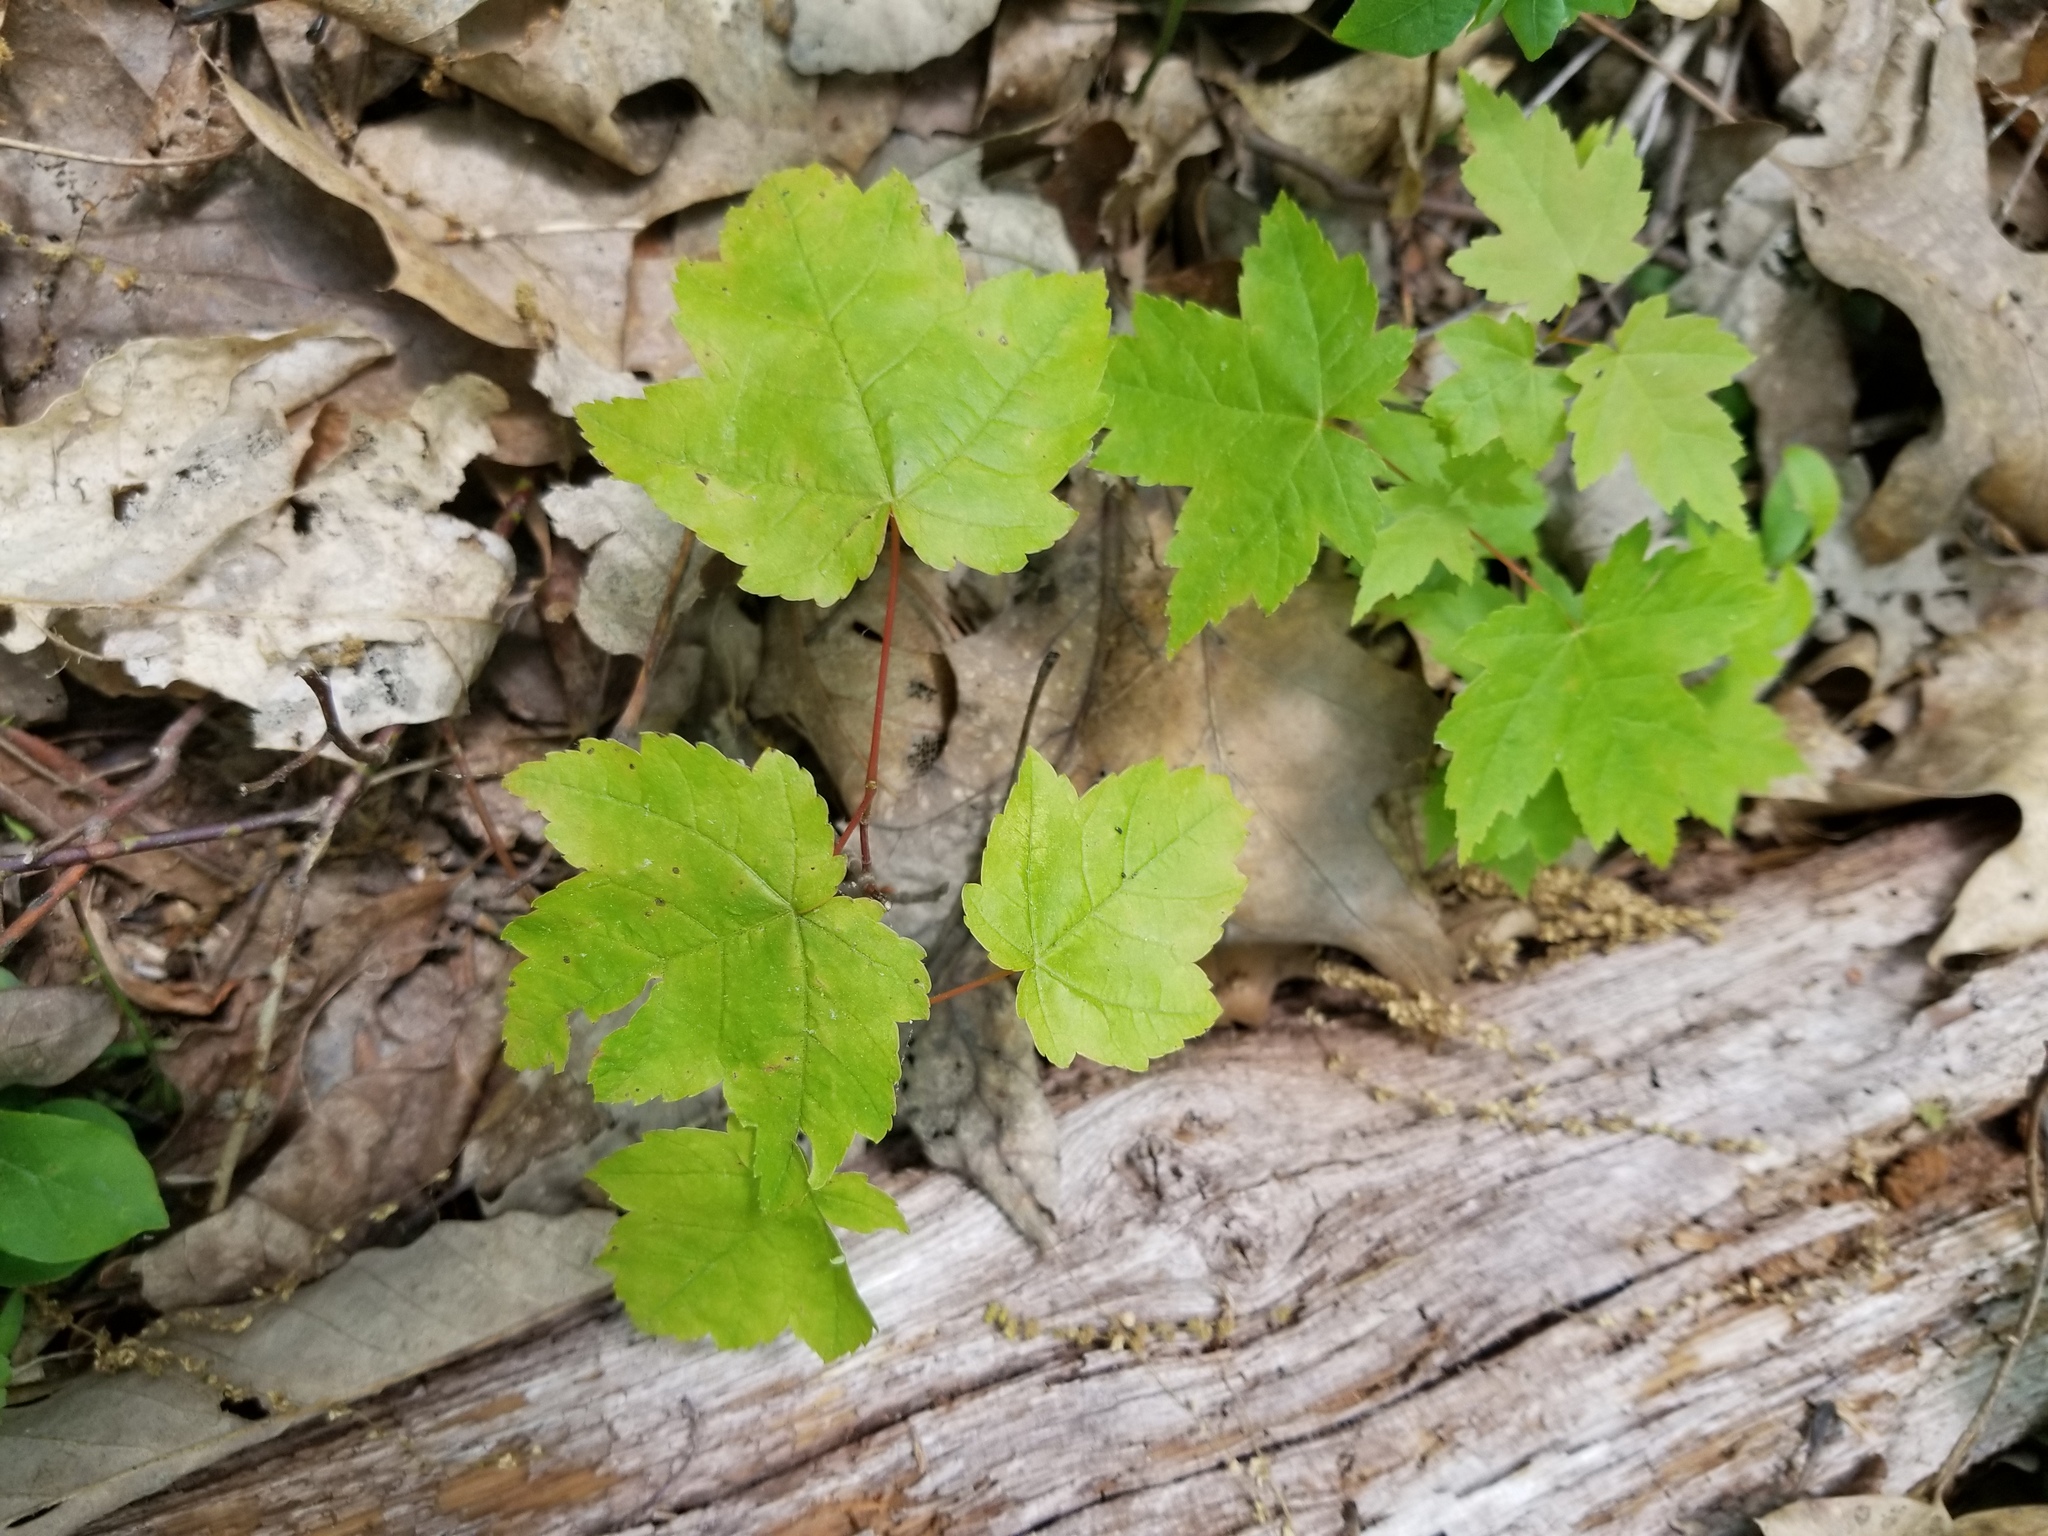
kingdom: Plantae
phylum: Tracheophyta
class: Magnoliopsida
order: Sapindales
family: Sapindaceae
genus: Acer
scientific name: Acer rubrum
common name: Red maple
